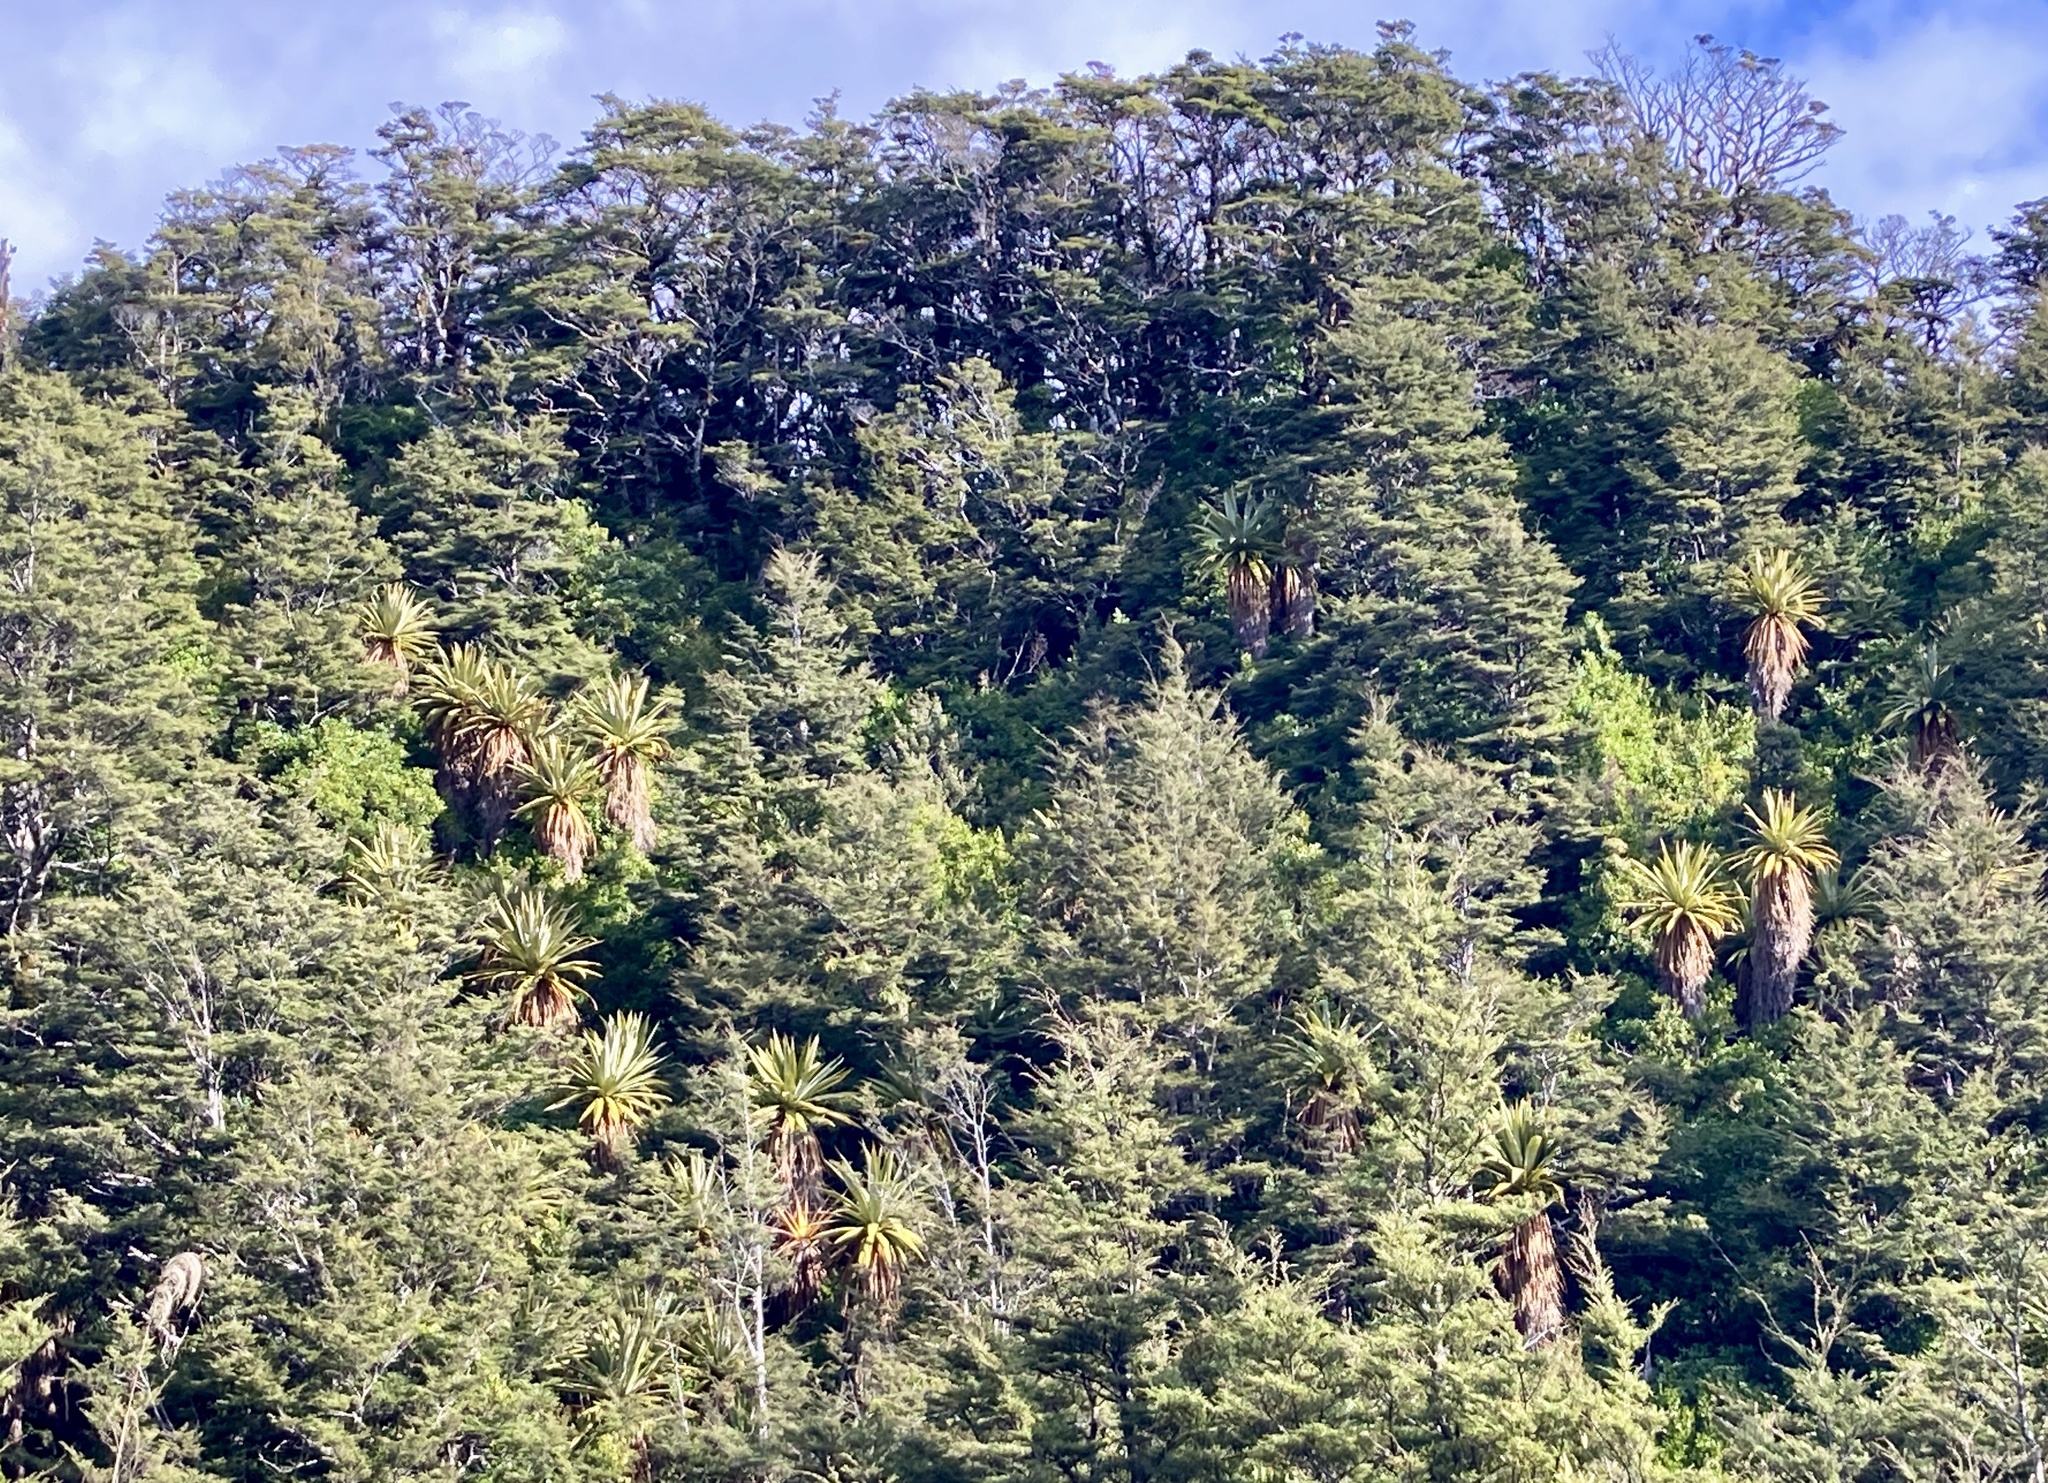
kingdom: Plantae
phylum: Tracheophyta
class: Liliopsida
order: Asparagales
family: Asparagaceae
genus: Cordyline
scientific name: Cordyline indivisa
